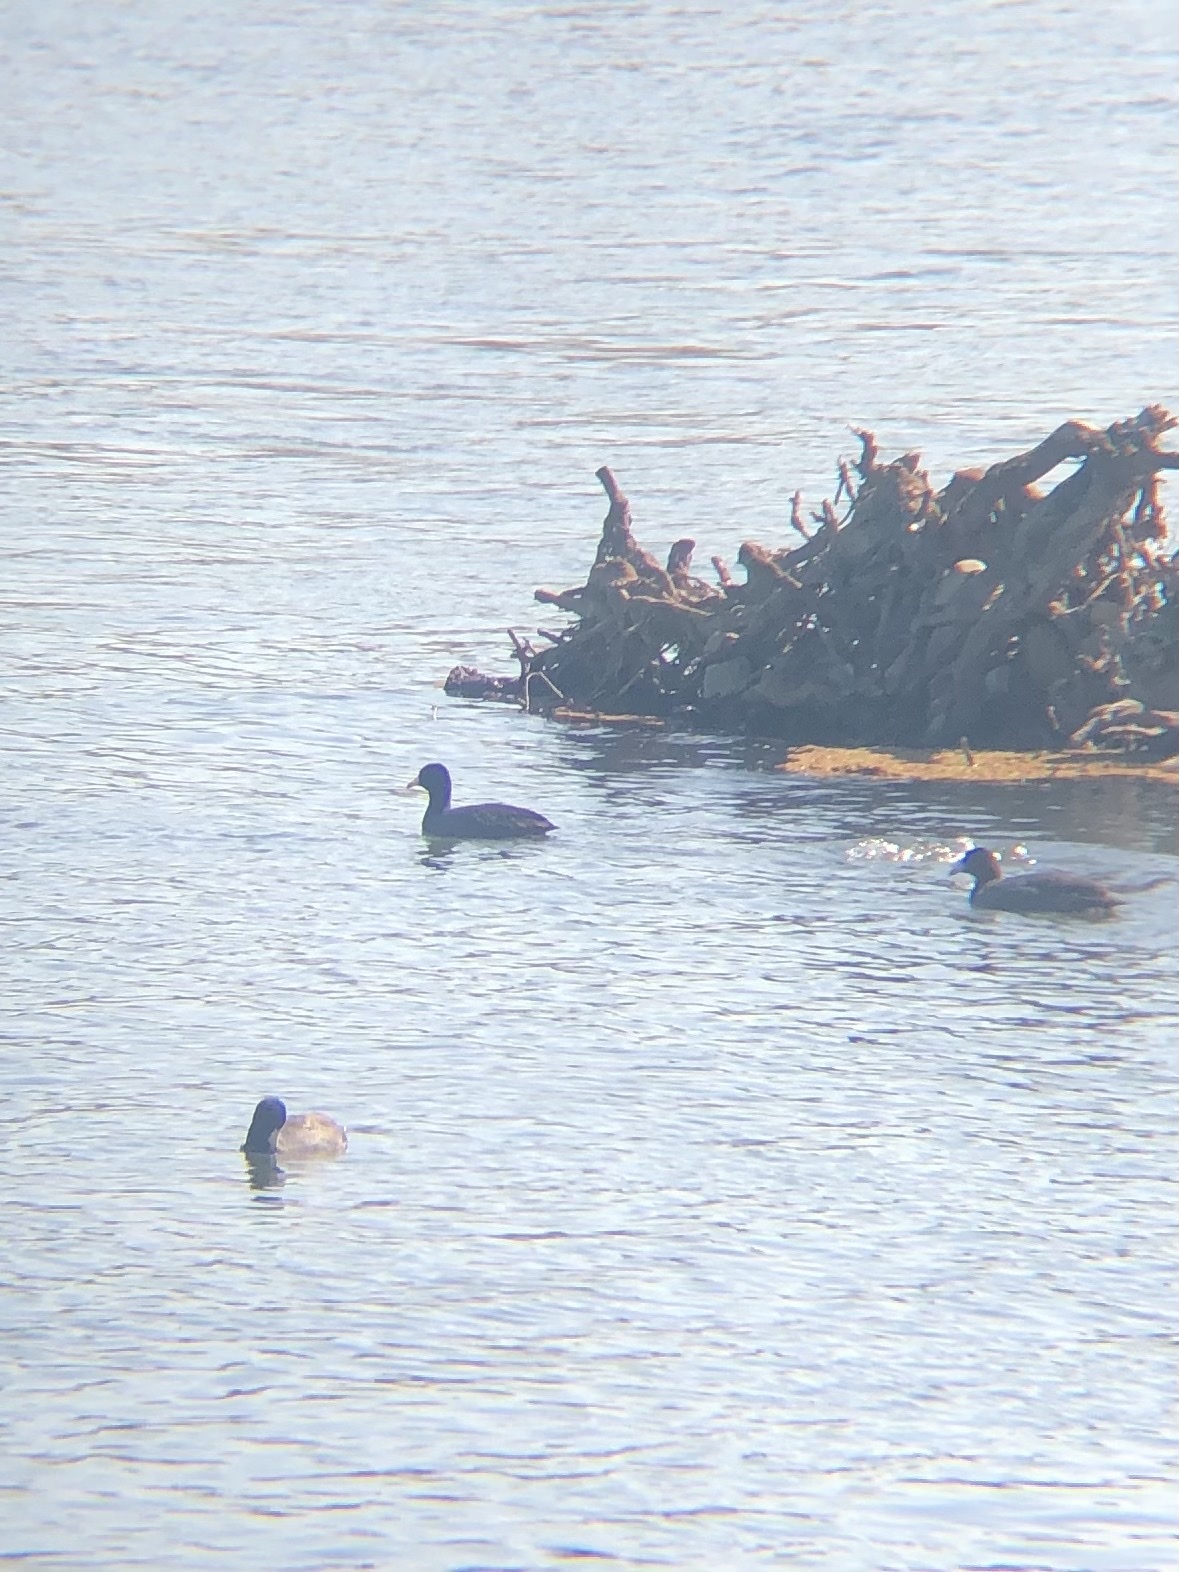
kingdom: Animalia
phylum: Chordata
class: Aves
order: Gruiformes
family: Rallidae
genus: Fulica
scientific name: Fulica americana
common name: American coot
